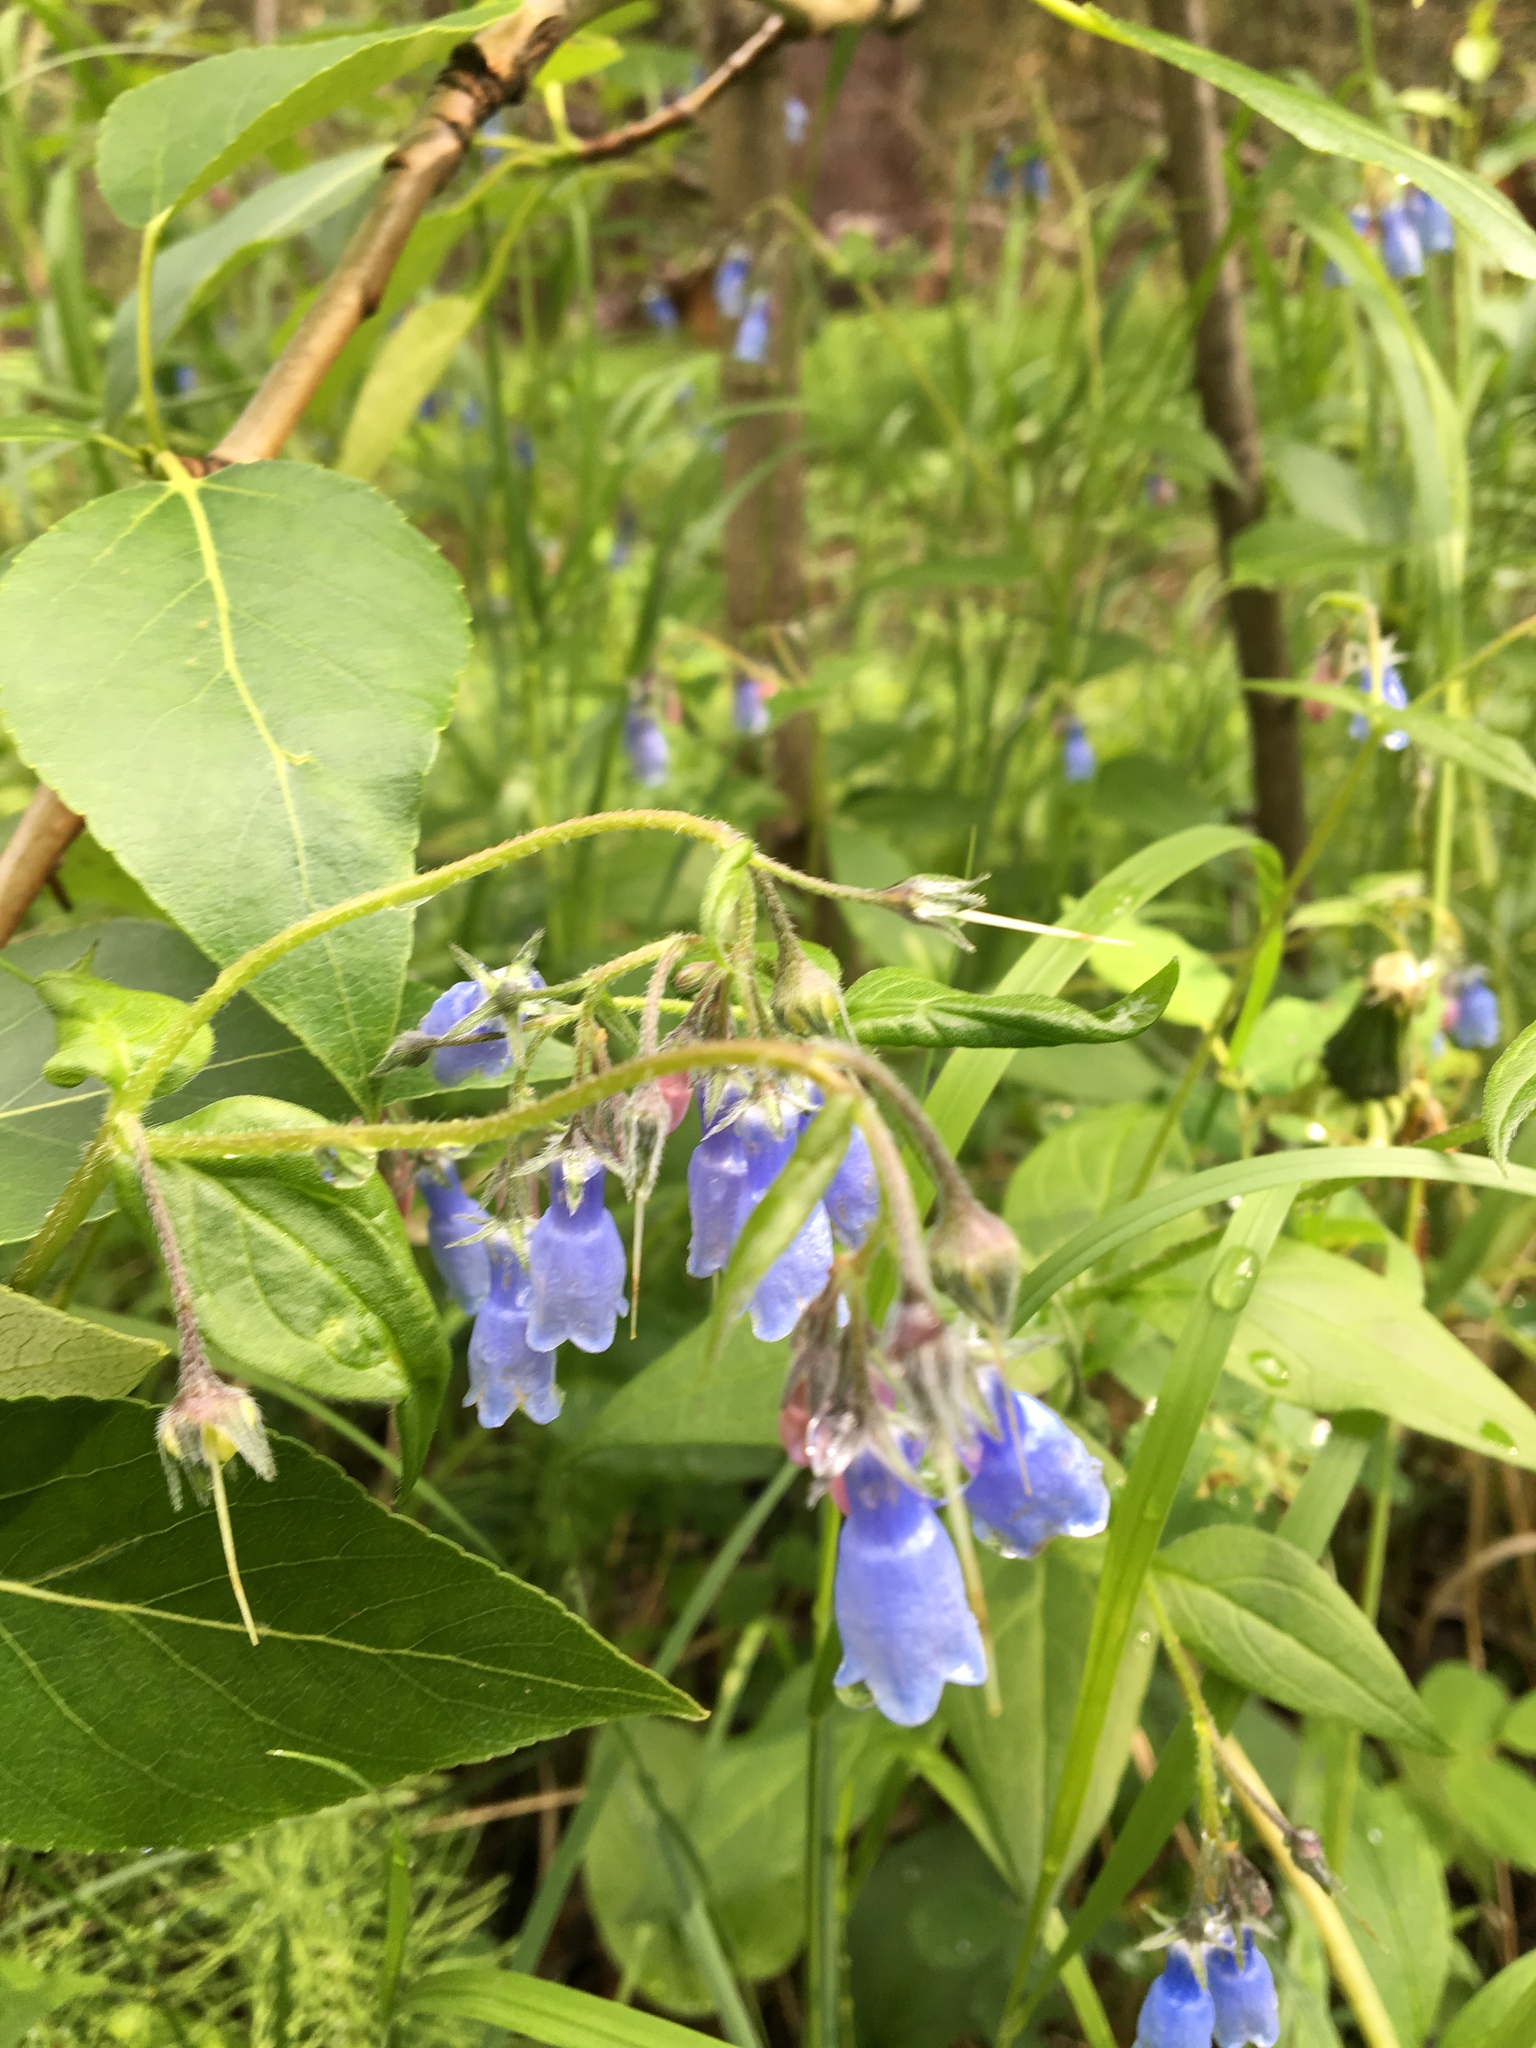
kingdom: Plantae
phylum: Tracheophyta
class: Magnoliopsida
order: Boraginales
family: Boraginaceae
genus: Mertensia
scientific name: Mertensia paniculata
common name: Panicled bluebells
